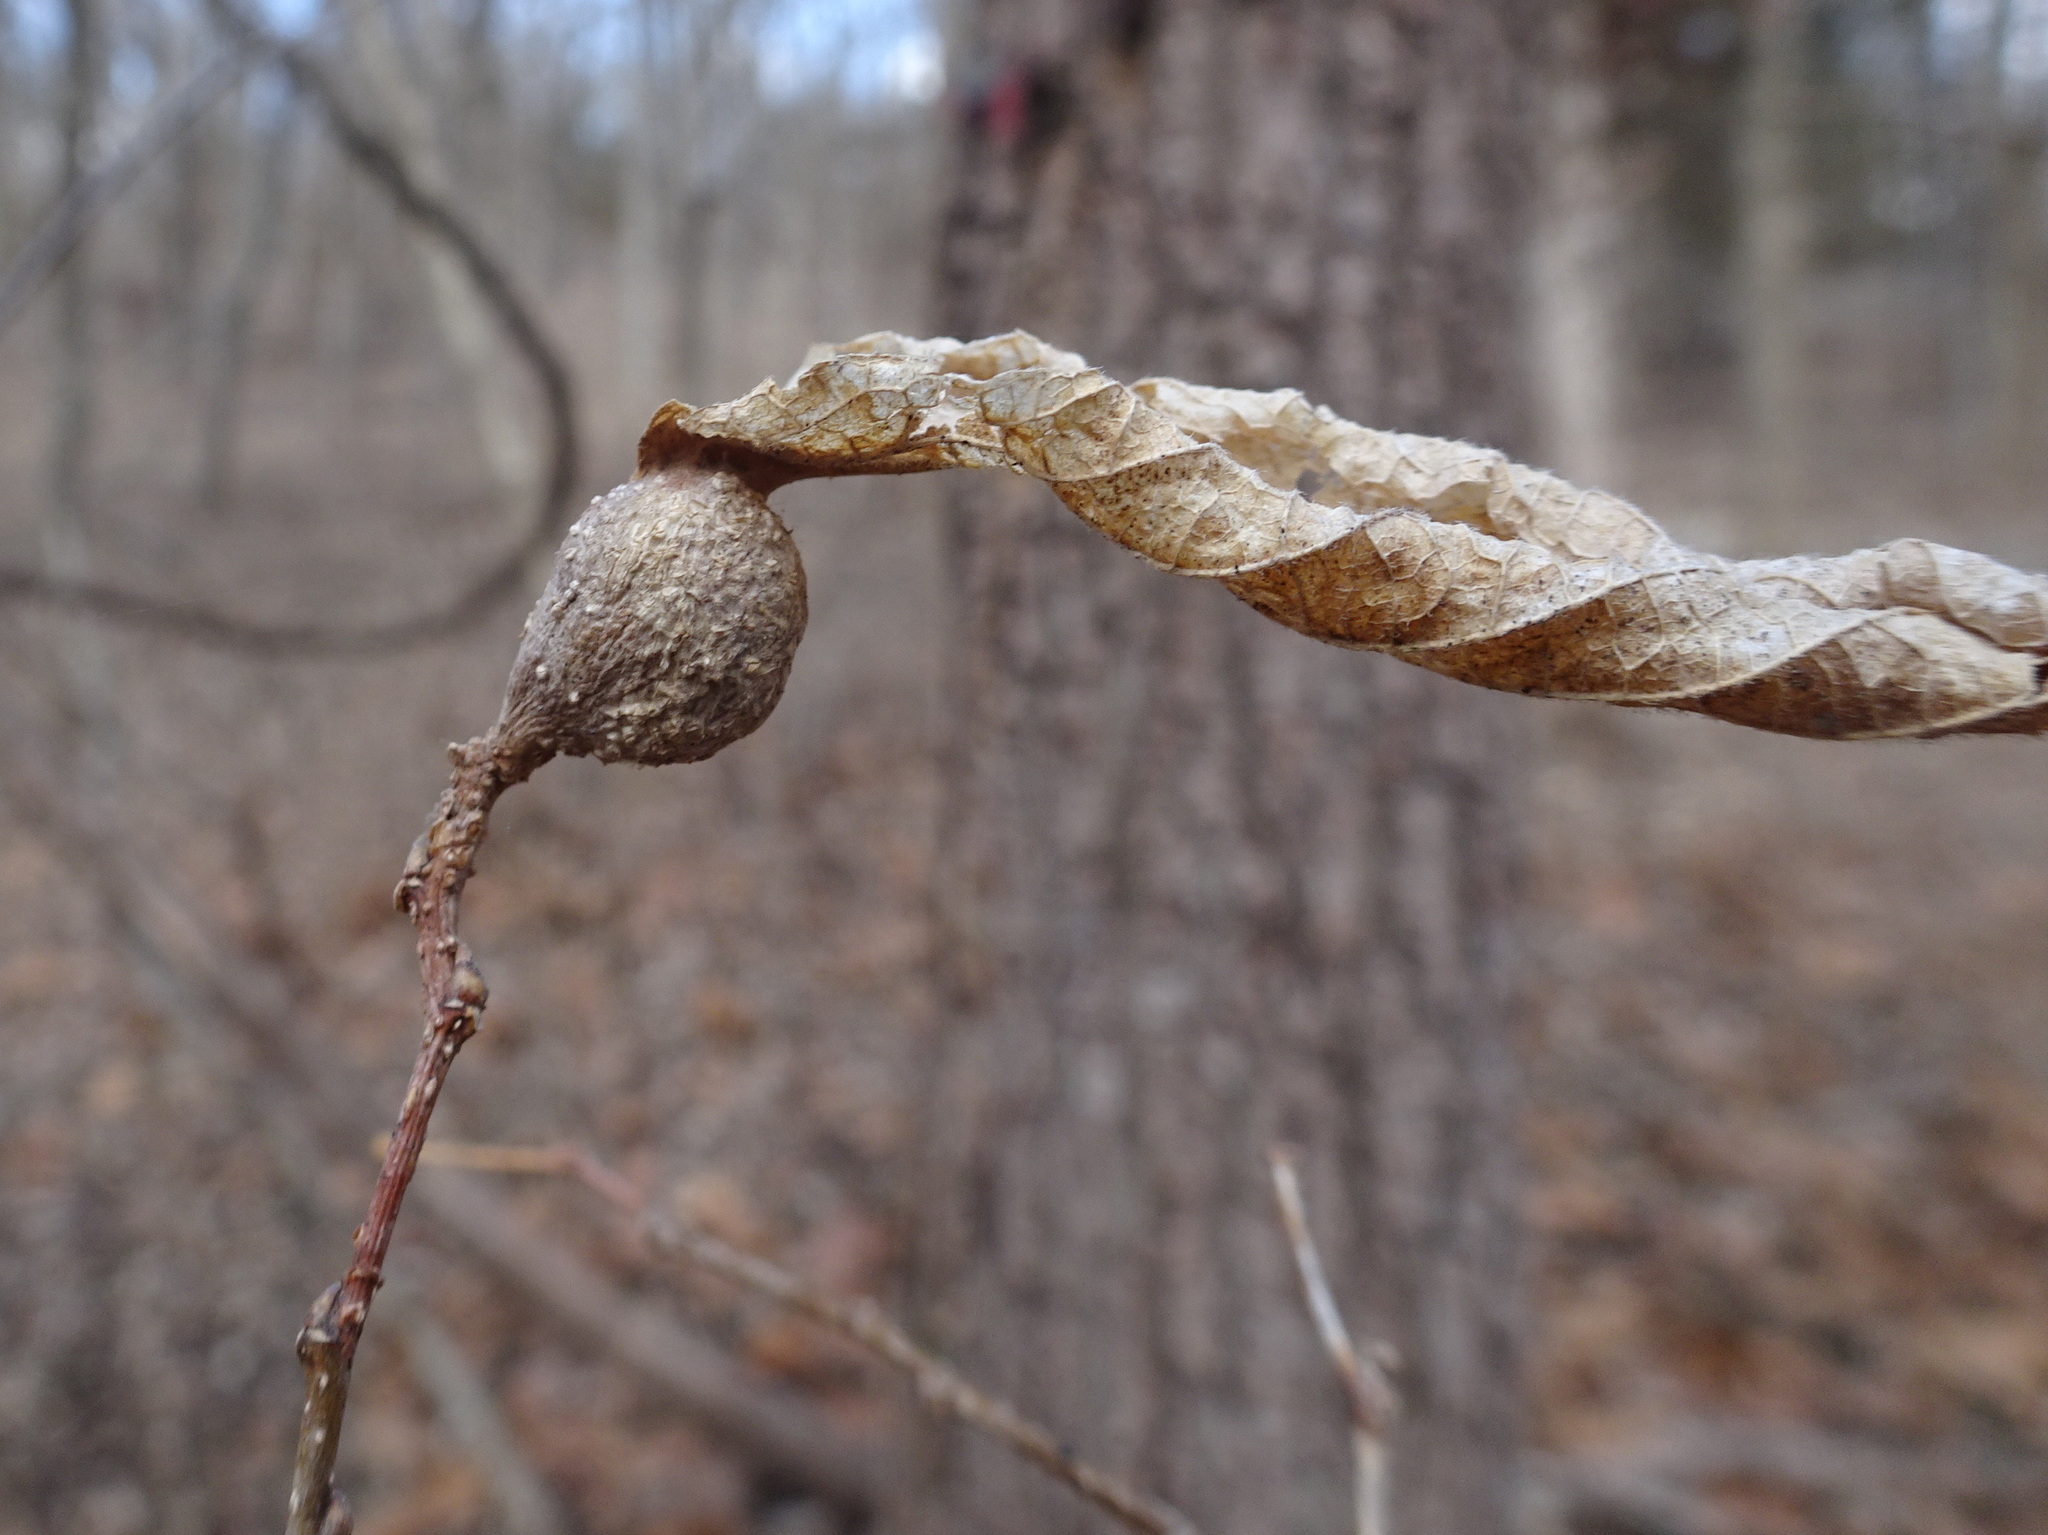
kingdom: Animalia
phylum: Arthropoda
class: Insecta
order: Hemiptera
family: Aphalaridae
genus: Pachypsylla
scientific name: Pachypsylla venusta
